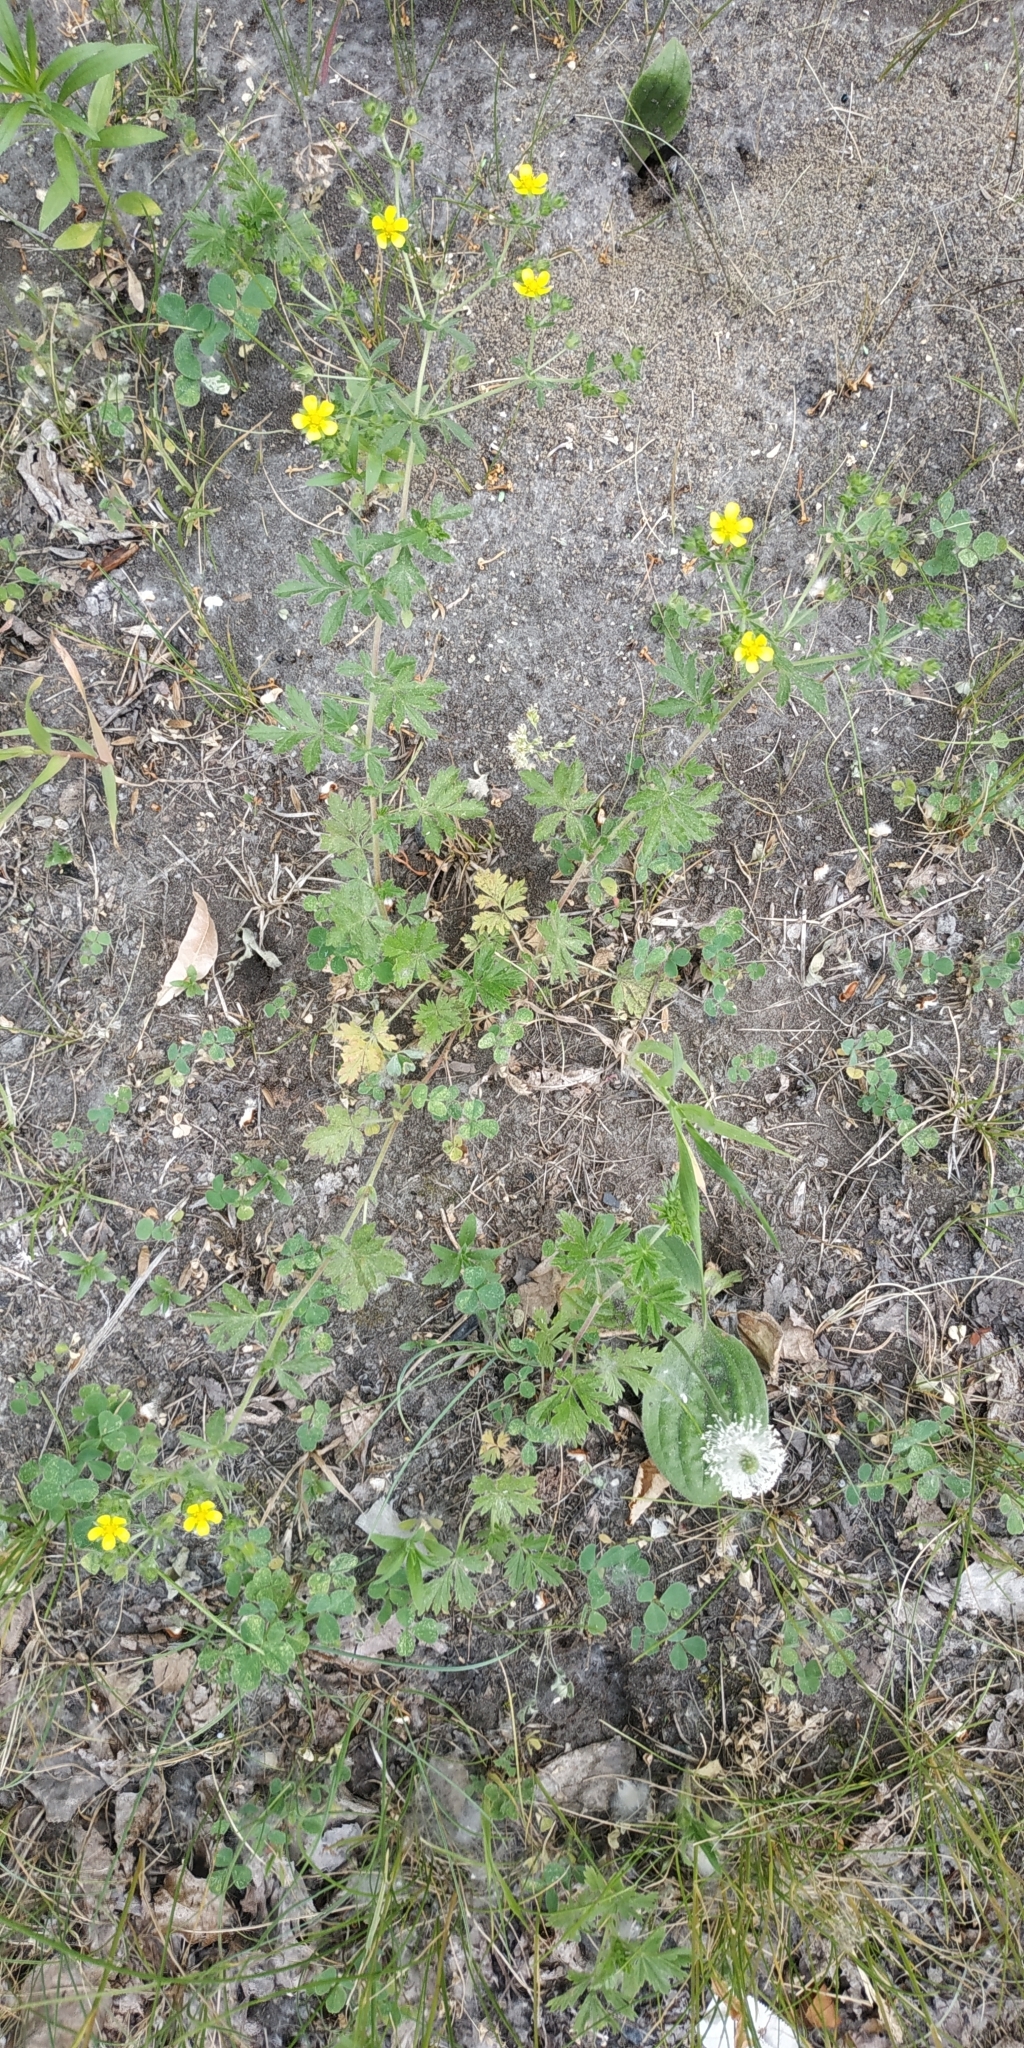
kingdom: Plantae
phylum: Tracheophyta
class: Magnoliopsida
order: Rosales
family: Rosaceae
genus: Potentilla
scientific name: Potentilla tobolensis
